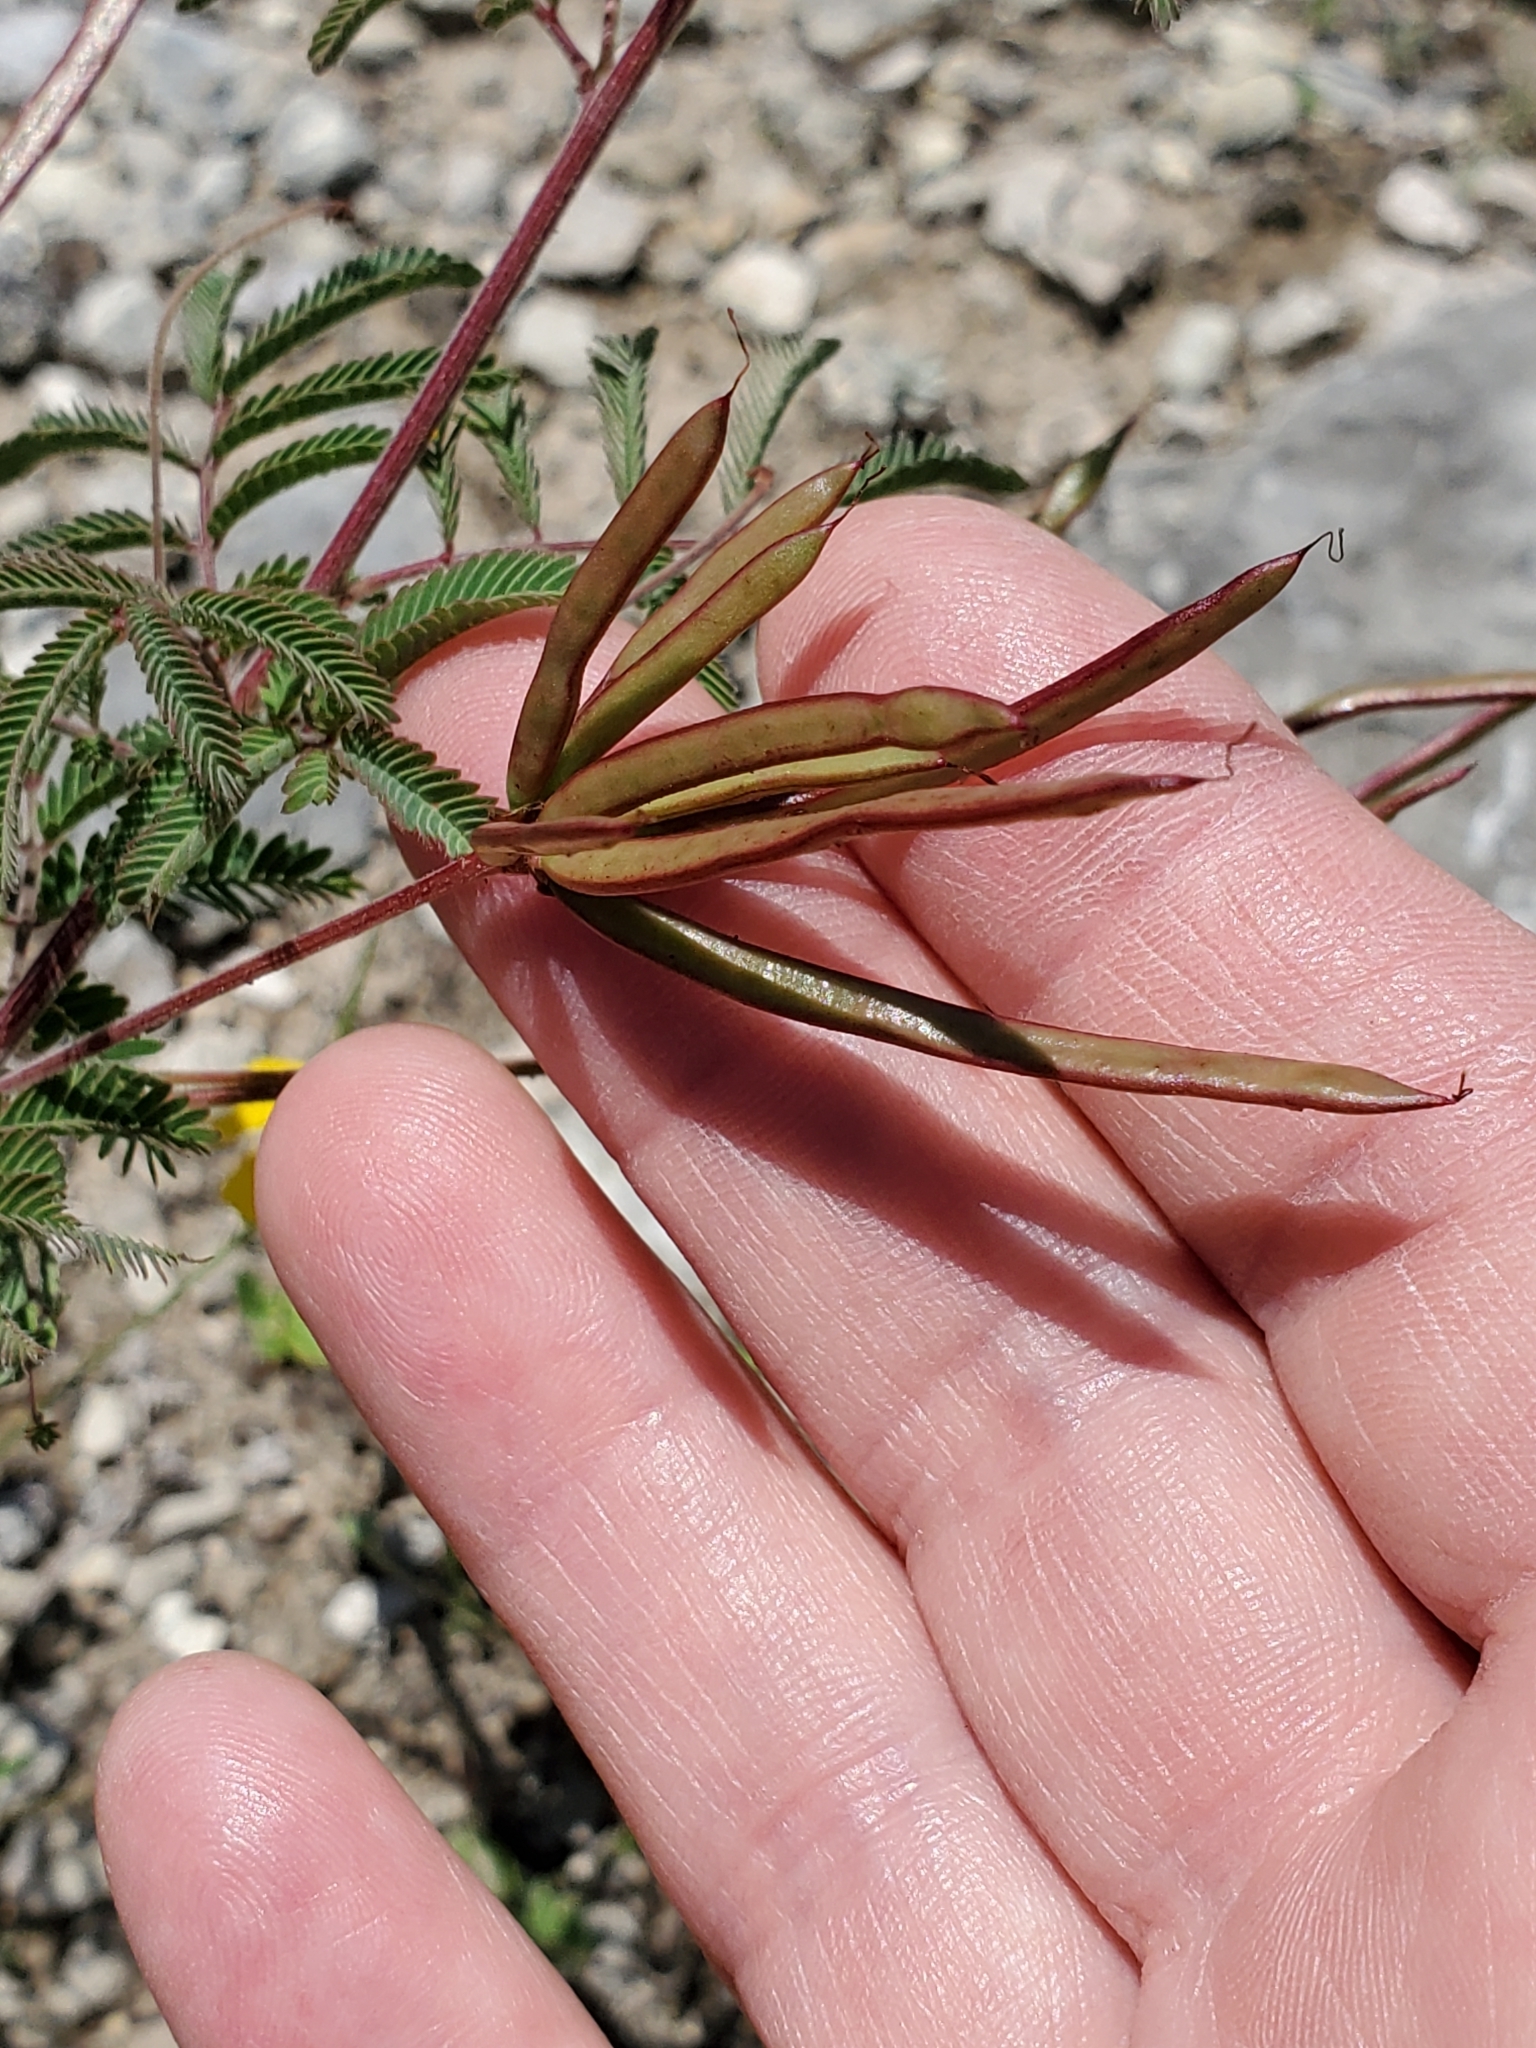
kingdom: Plantae
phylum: Tracheophyta
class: Magnoliopsida
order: Fabales
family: Fabaceae
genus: Desmanthus
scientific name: Desmanthus velutinus
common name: Velvet bundle-flower
